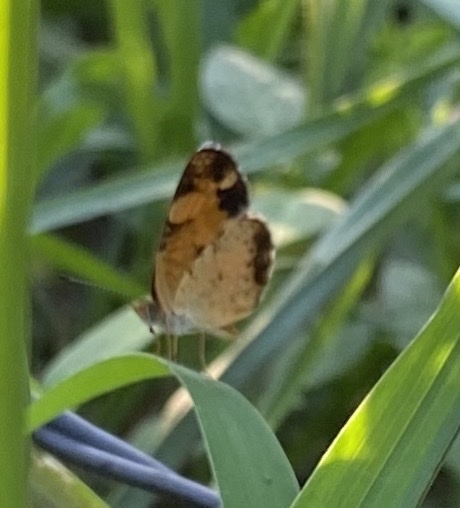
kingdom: Animalia
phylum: Arthropoda
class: Insecta
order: Lepidoptera
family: Nymphalidae
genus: Phyciodes
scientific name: Phyciodes tharos
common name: Pearl crescent
